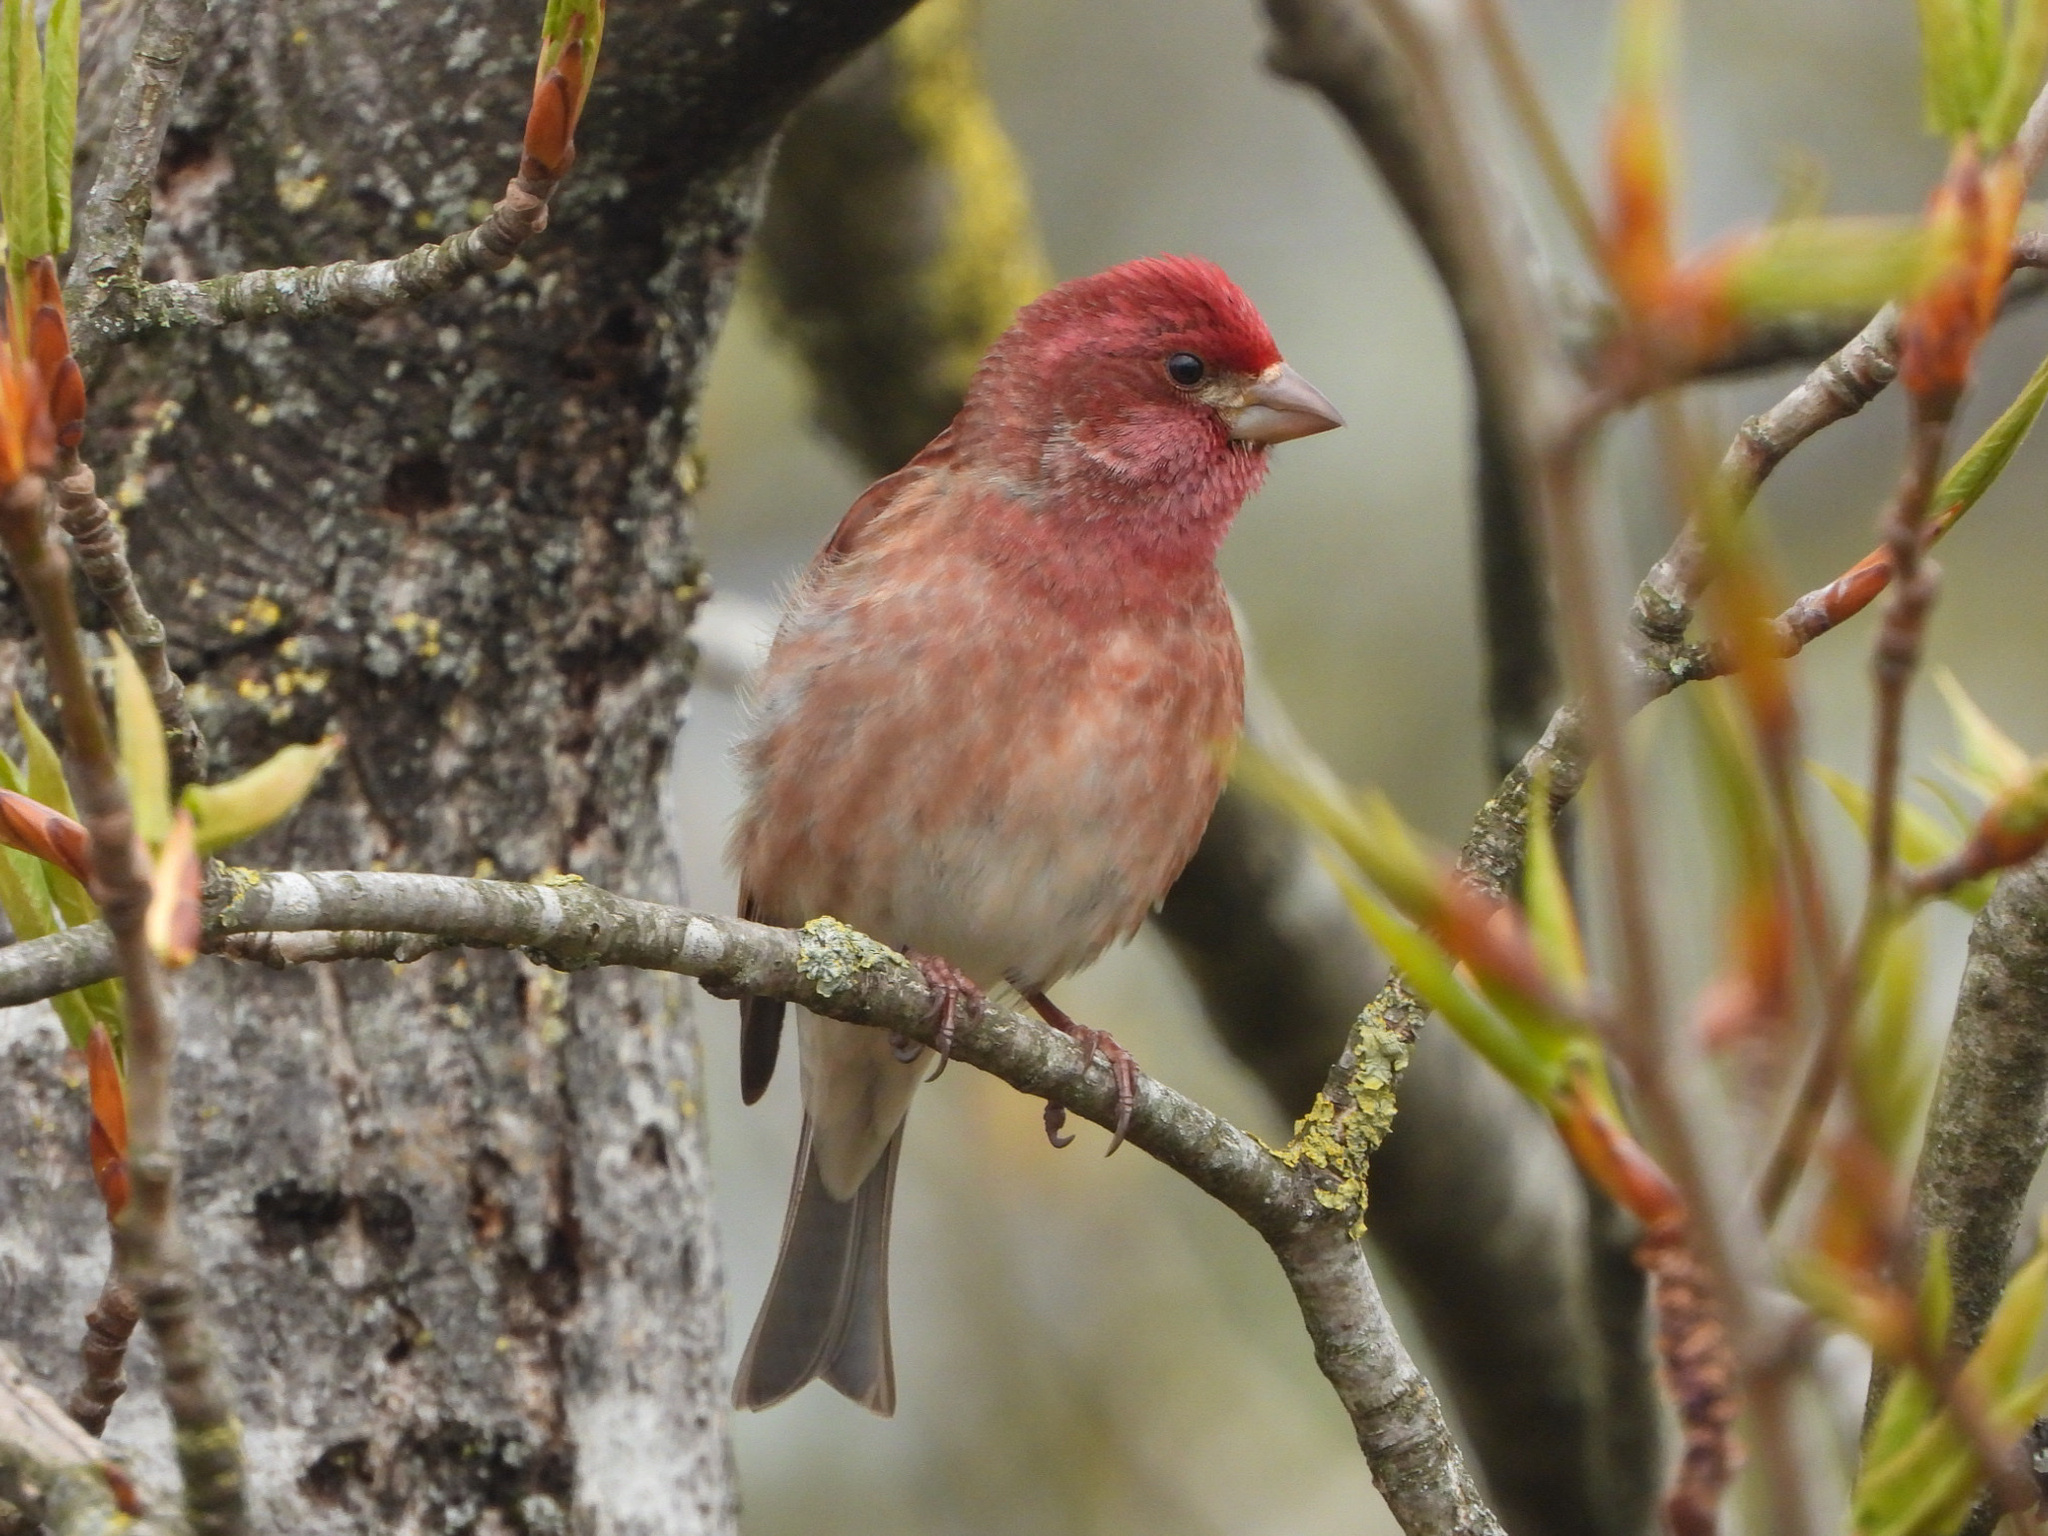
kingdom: Animalia
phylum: Chordata
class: Aves
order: Passeriformes
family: Fringillidae
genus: Haemorhous
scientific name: Haemorhous purpureus
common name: Purple finch
